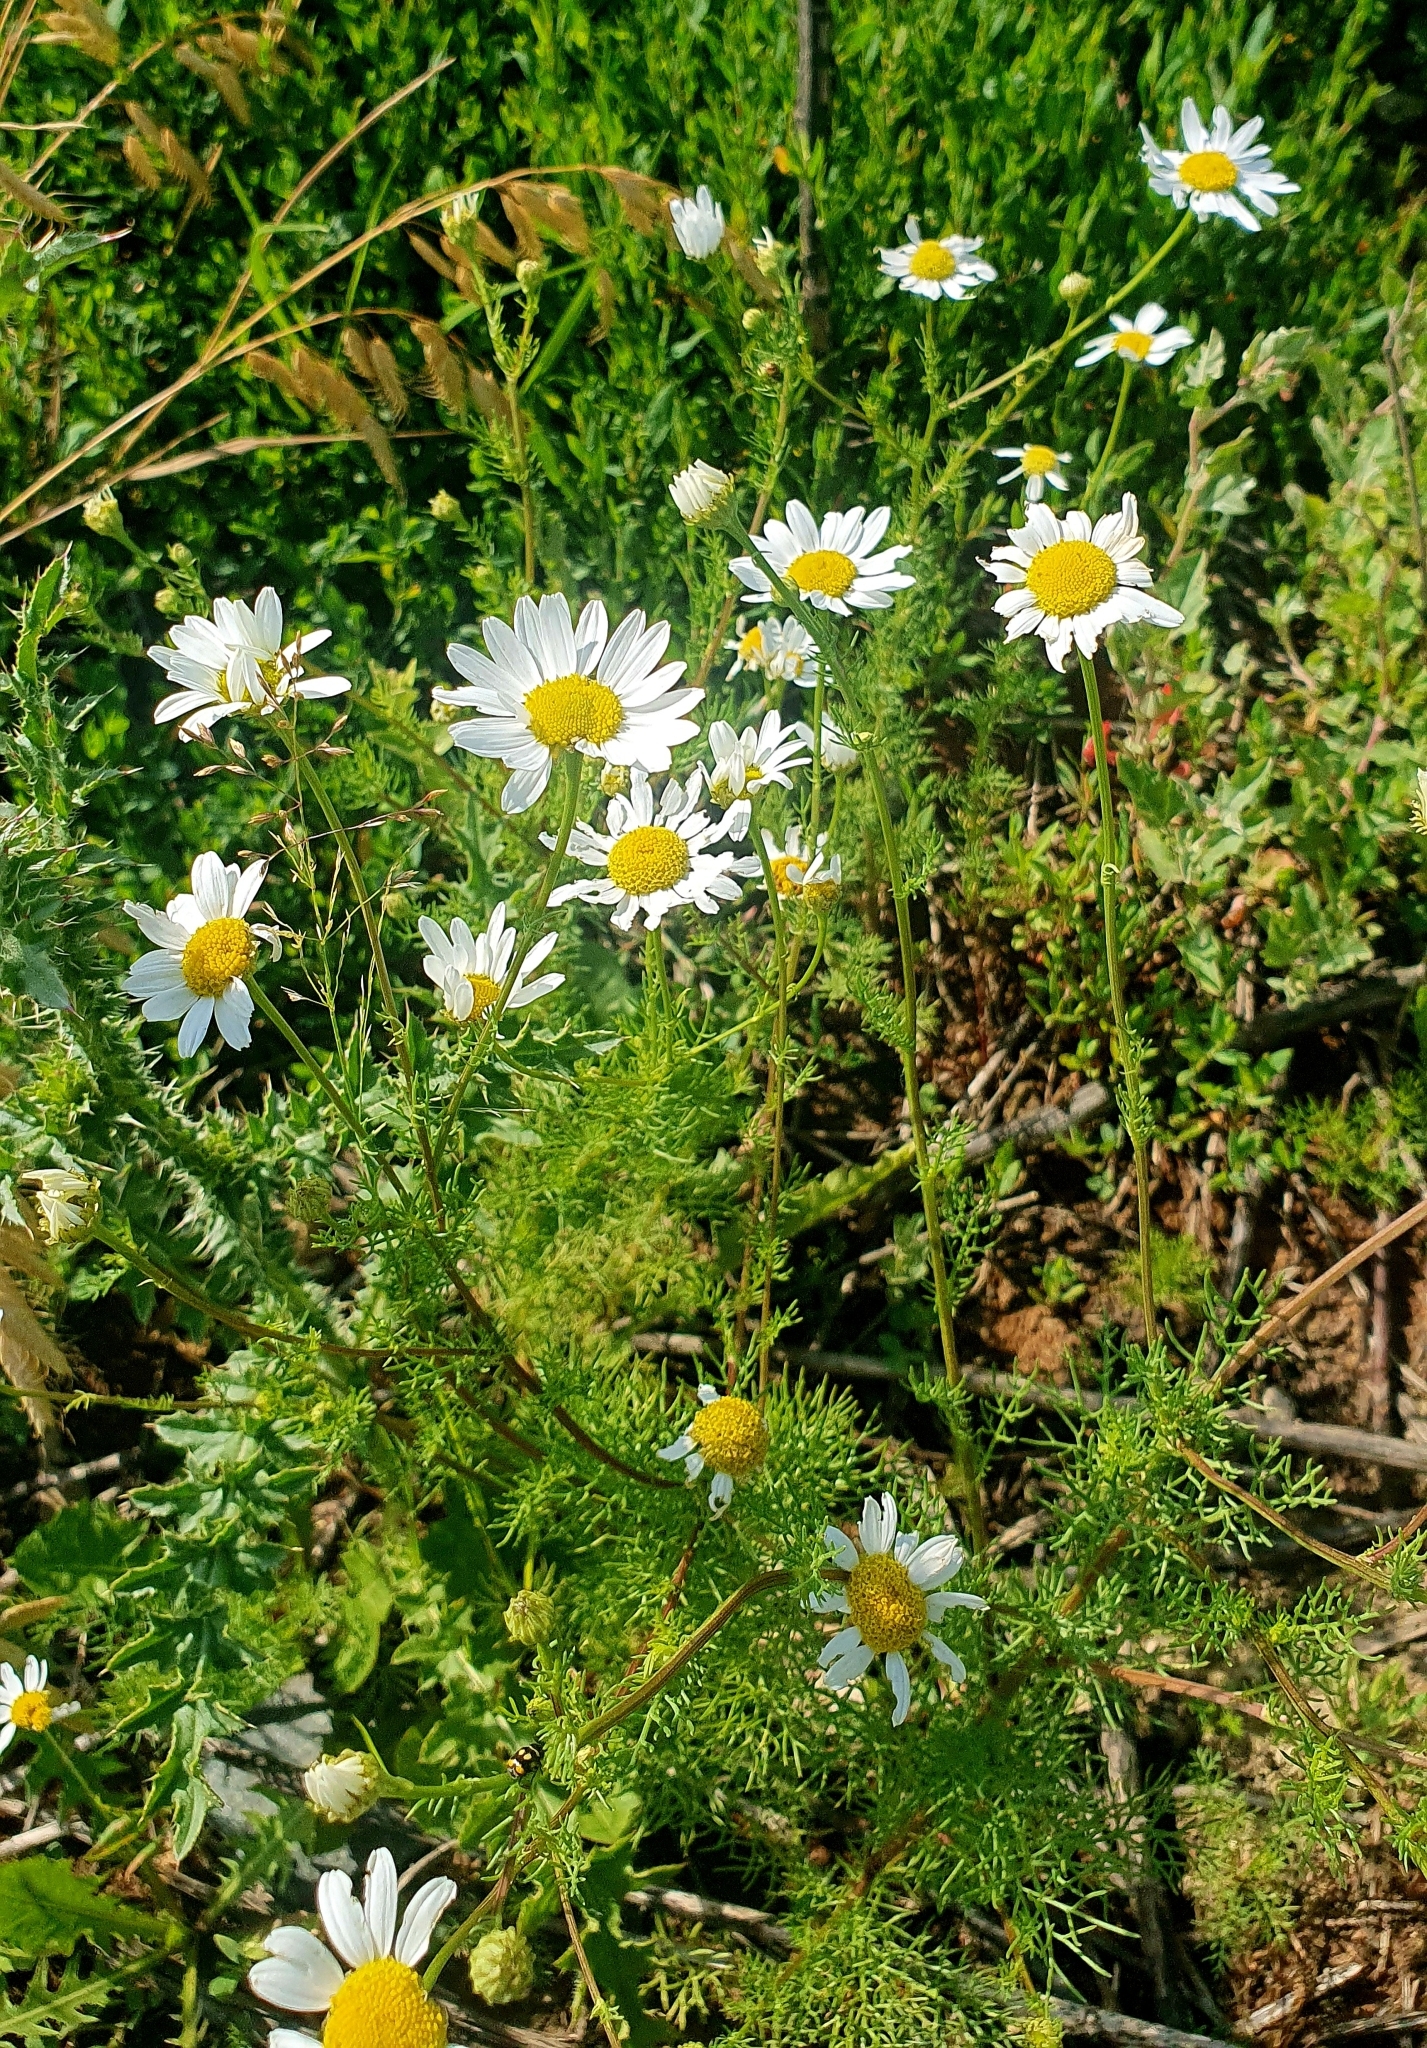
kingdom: Plantae
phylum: Tracheophyta
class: Magnoliopsida
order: Asterales
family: Asteraceae
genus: Tripleurospermum
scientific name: Tripleurospermum inodorum
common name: Scentless mayweed
